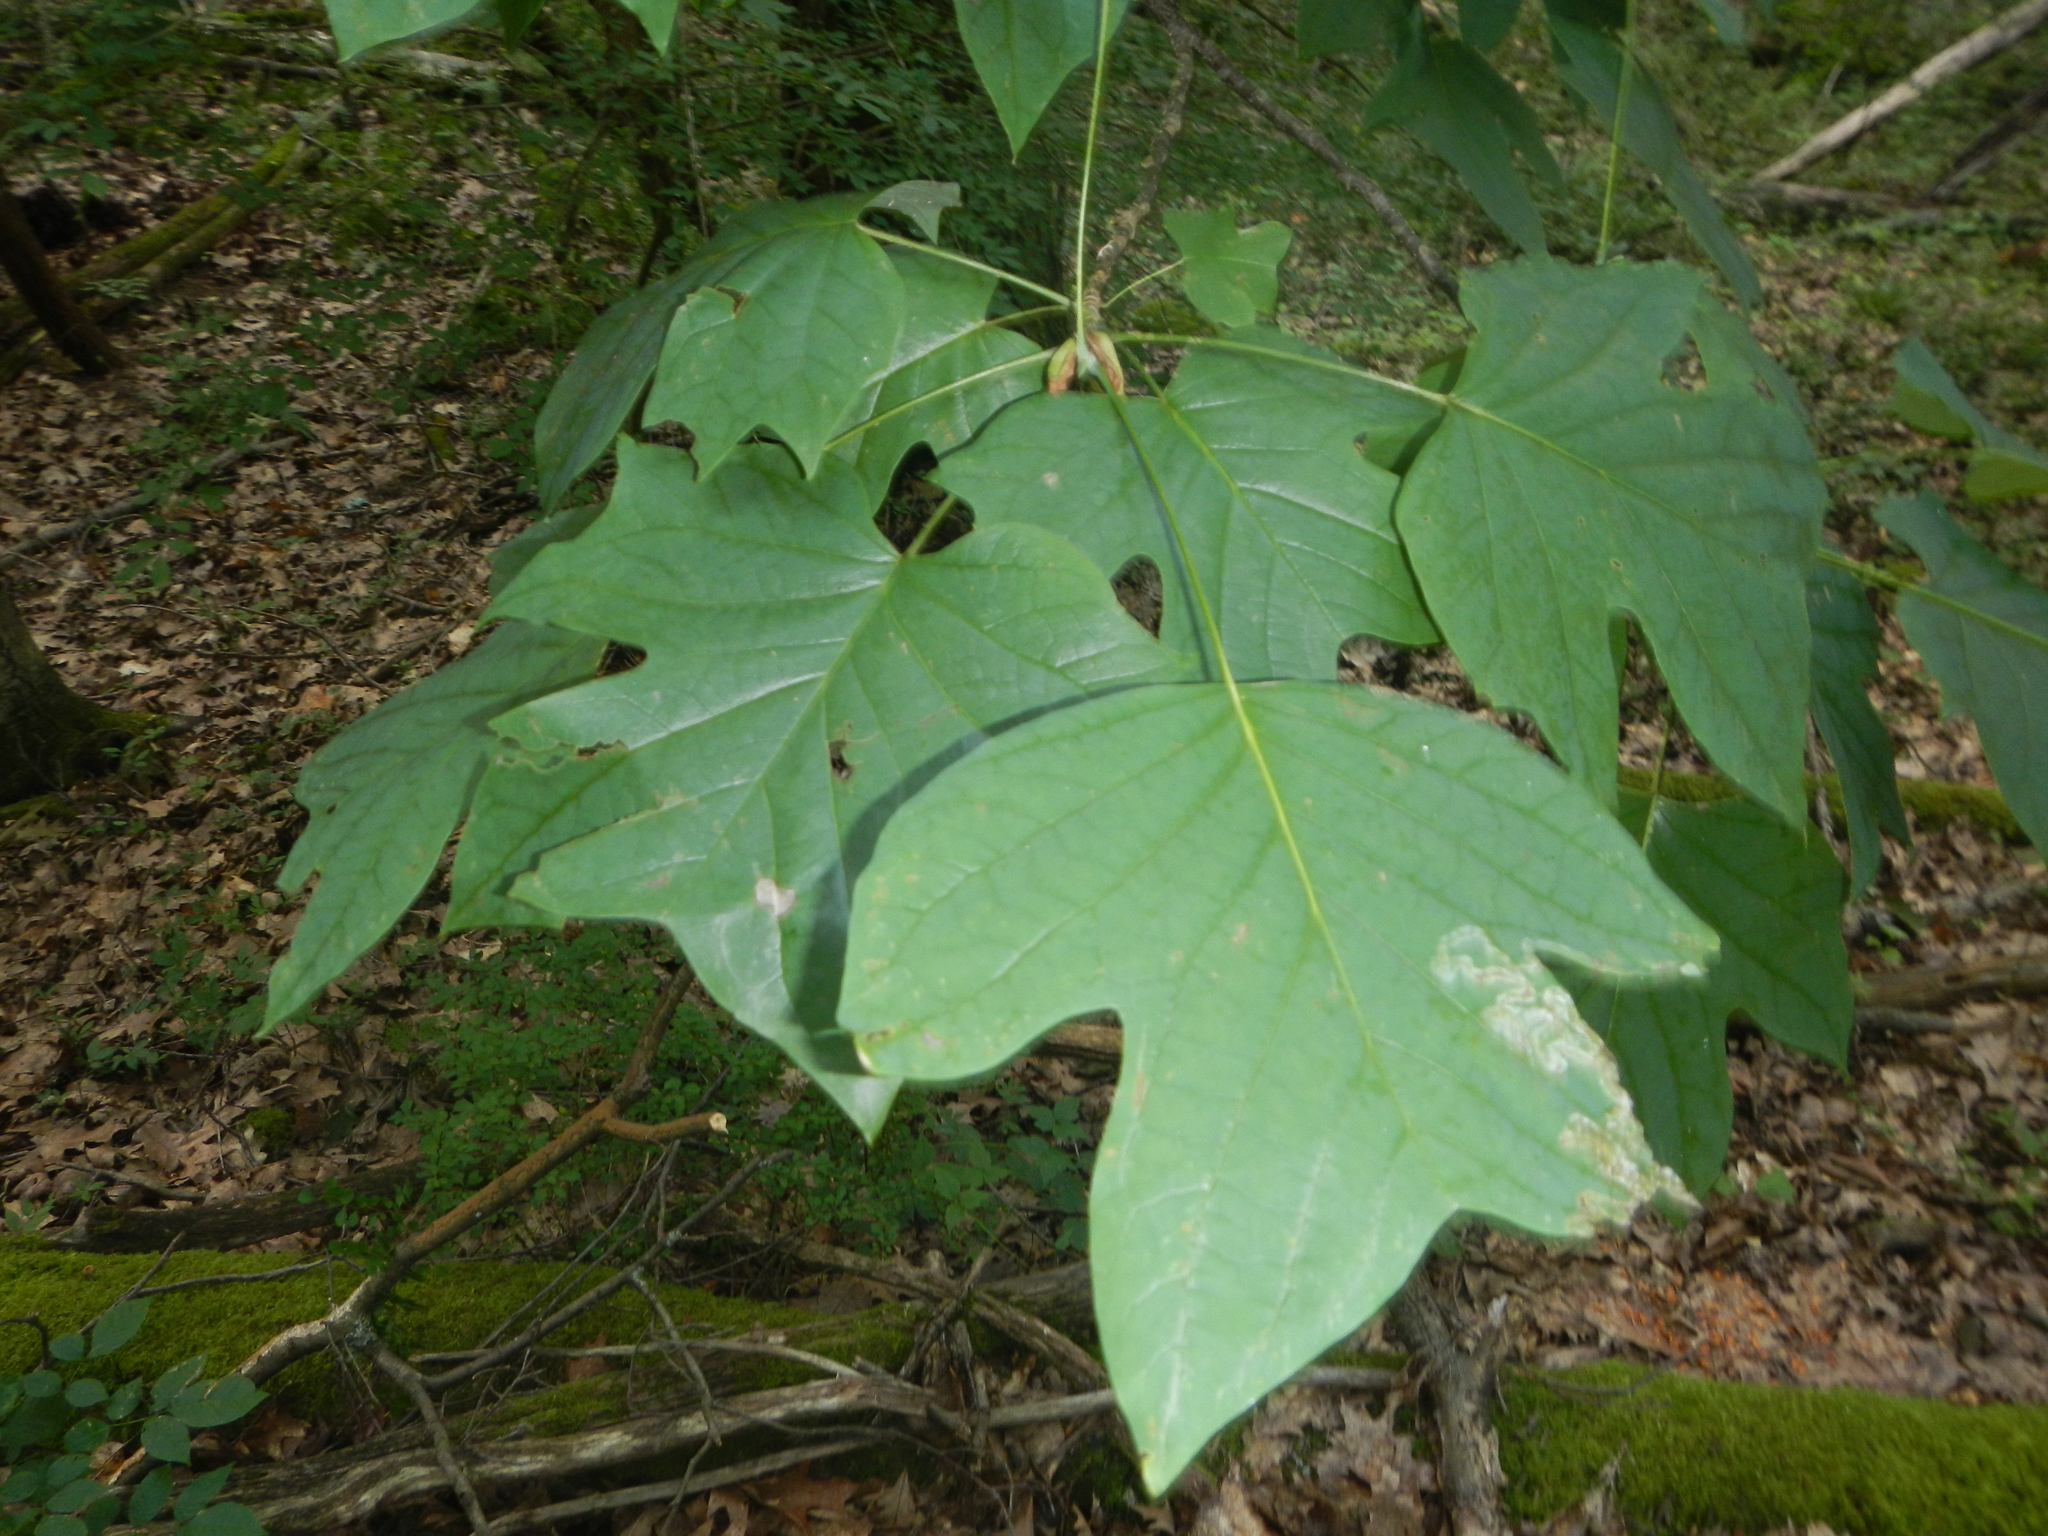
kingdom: Plantae
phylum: Tracheophyta
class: Magnoliopsida
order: Magnoliales
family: Magnoliaceae
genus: Liriodendron
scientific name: Liriodendron tulipifera
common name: Tulip tree
